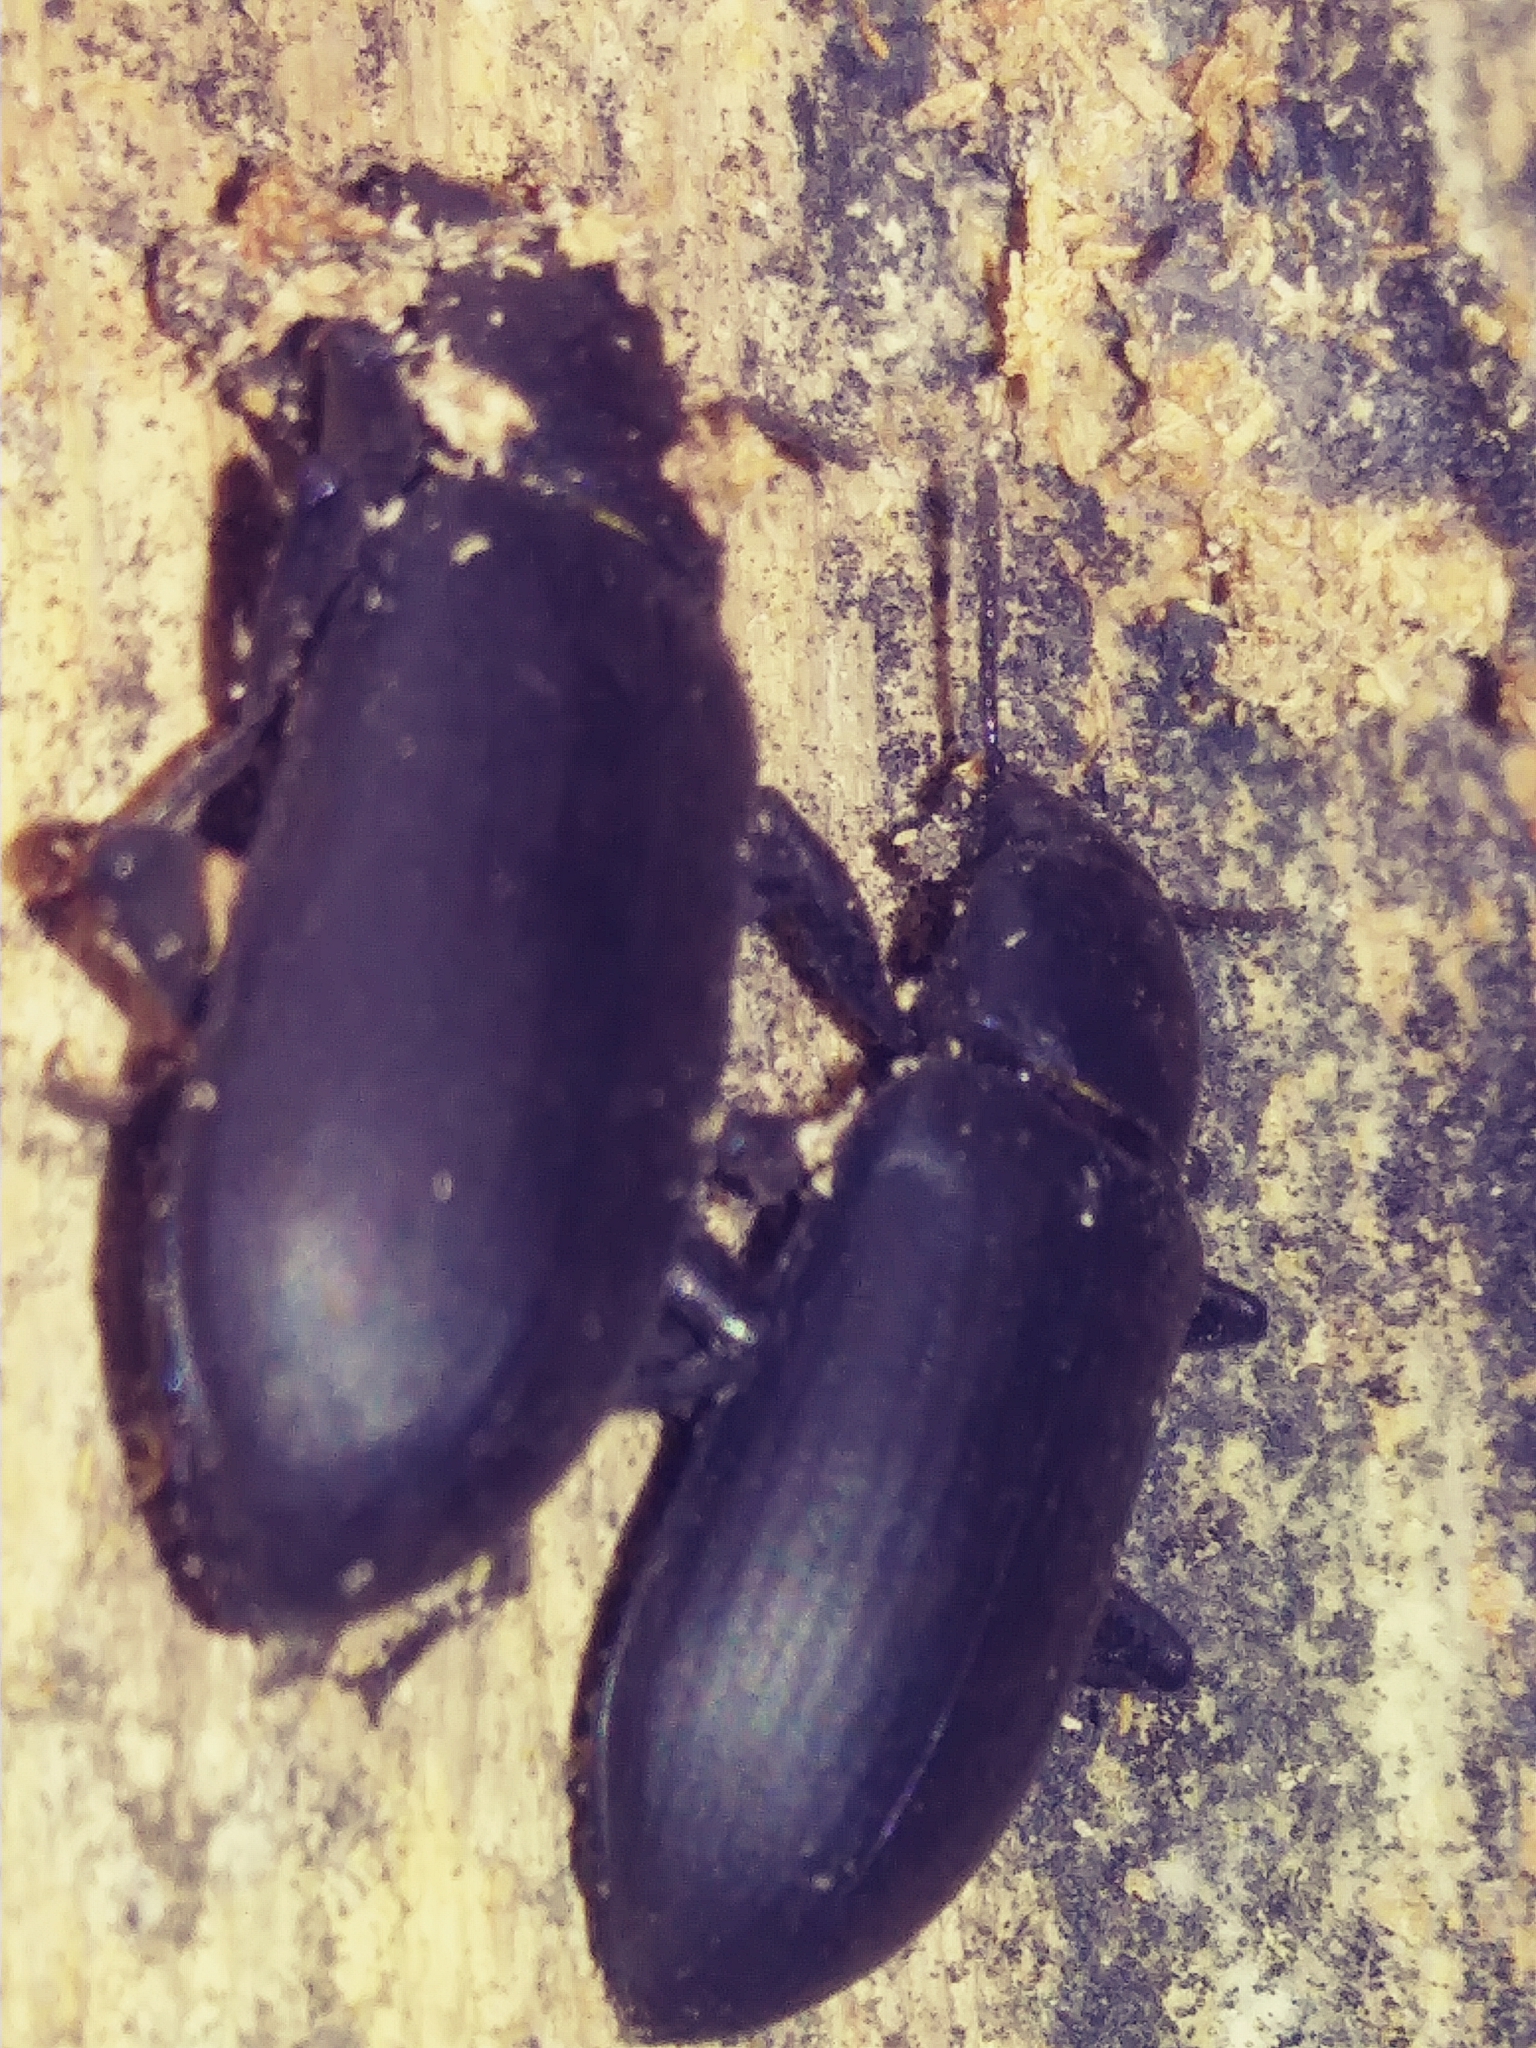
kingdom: Animalia
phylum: Arthropoda
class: Insecta
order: Coleoptera
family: Tenebrionidae
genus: Alobates
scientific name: Alobates
